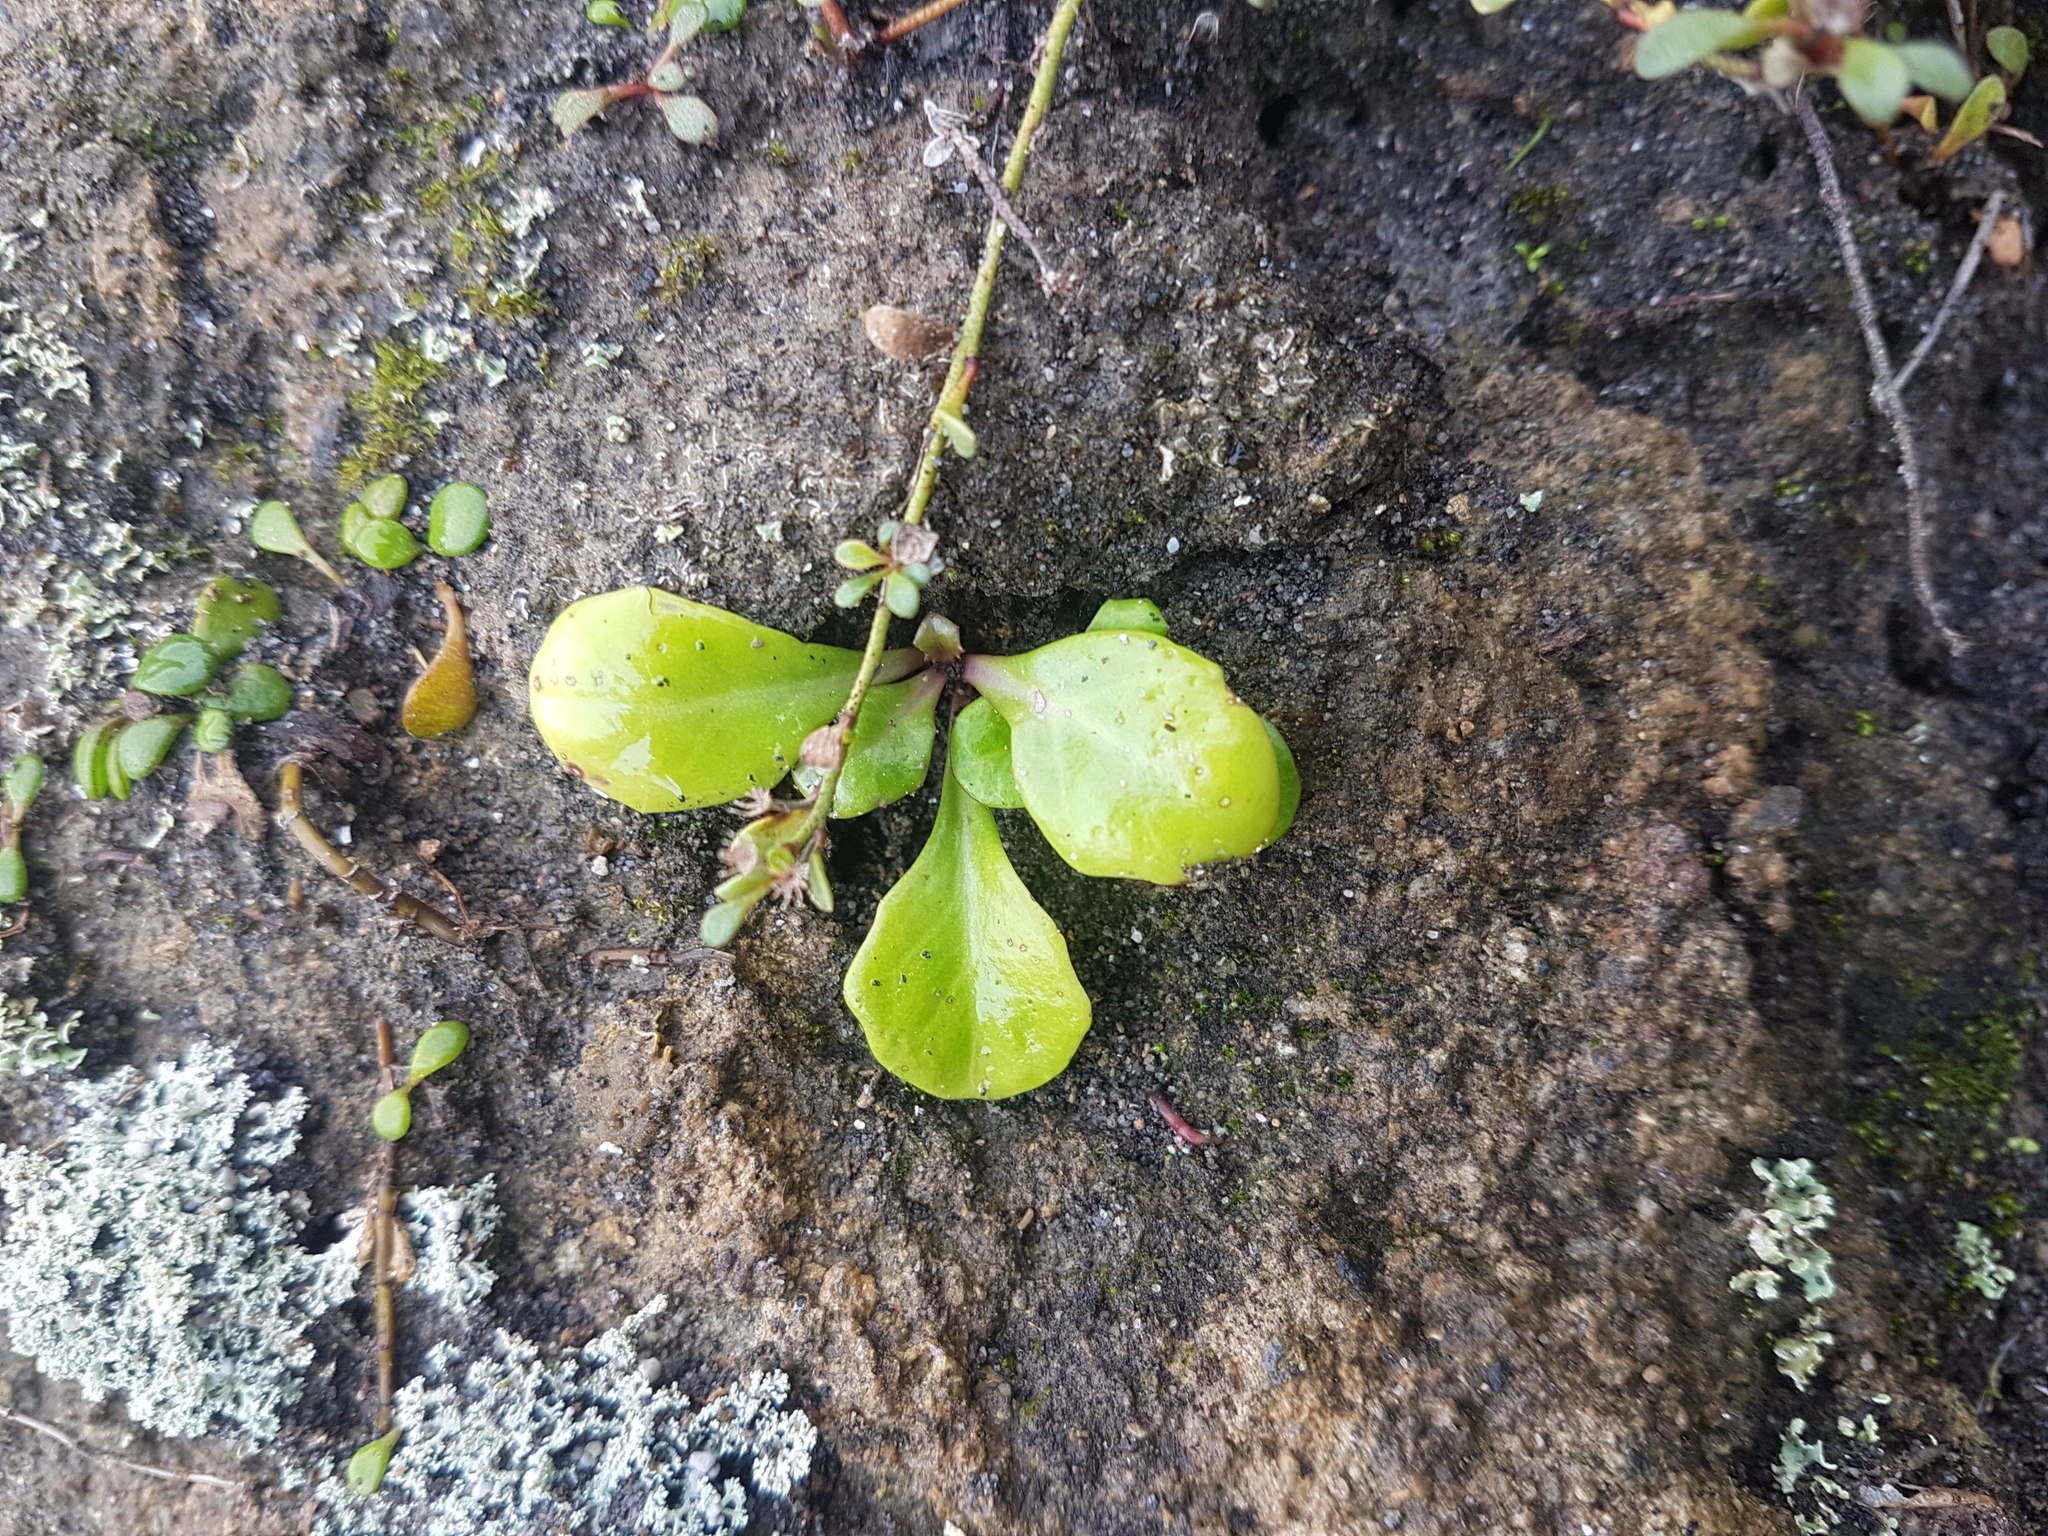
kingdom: Plantae
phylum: Tracheophyta
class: Magnoliopsida
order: Asterales
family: Campanulaceae
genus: Lobelia
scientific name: Lobelia anceps
